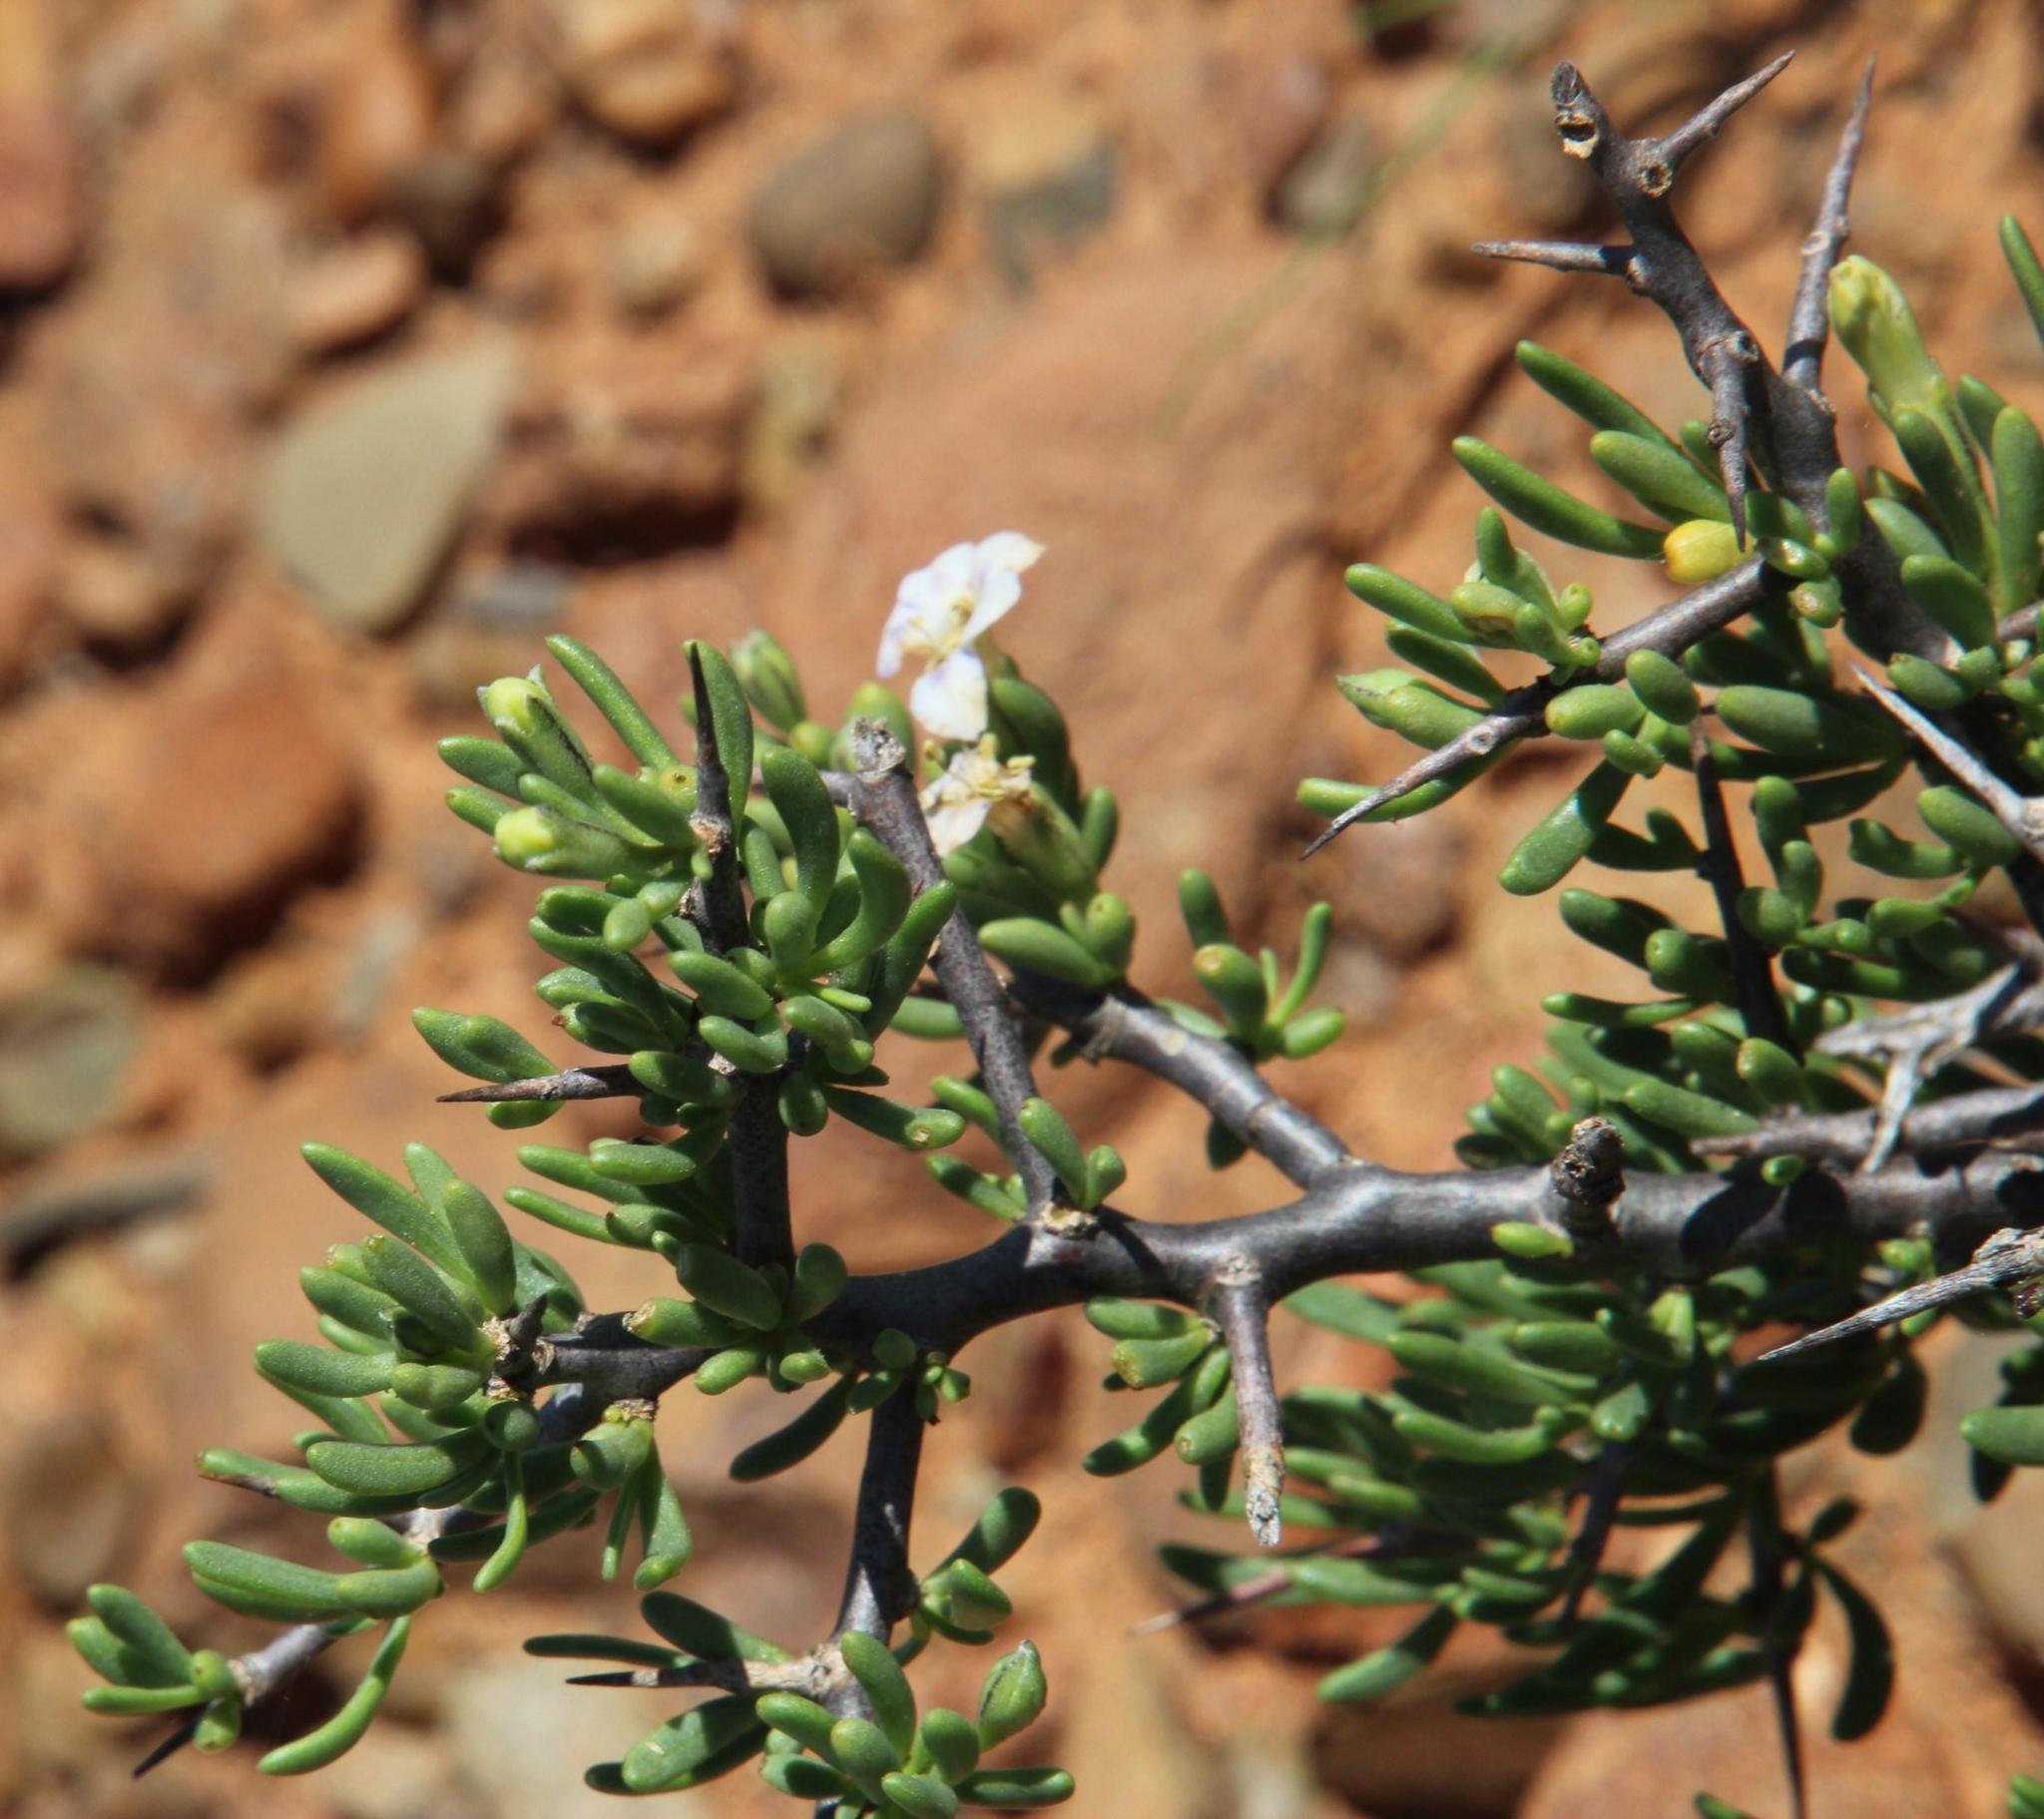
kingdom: Plantae
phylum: Tracheophyta
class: Magnoliopsida
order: Solanales
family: Solanaceae
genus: Lycium
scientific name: Lycium pumilum
